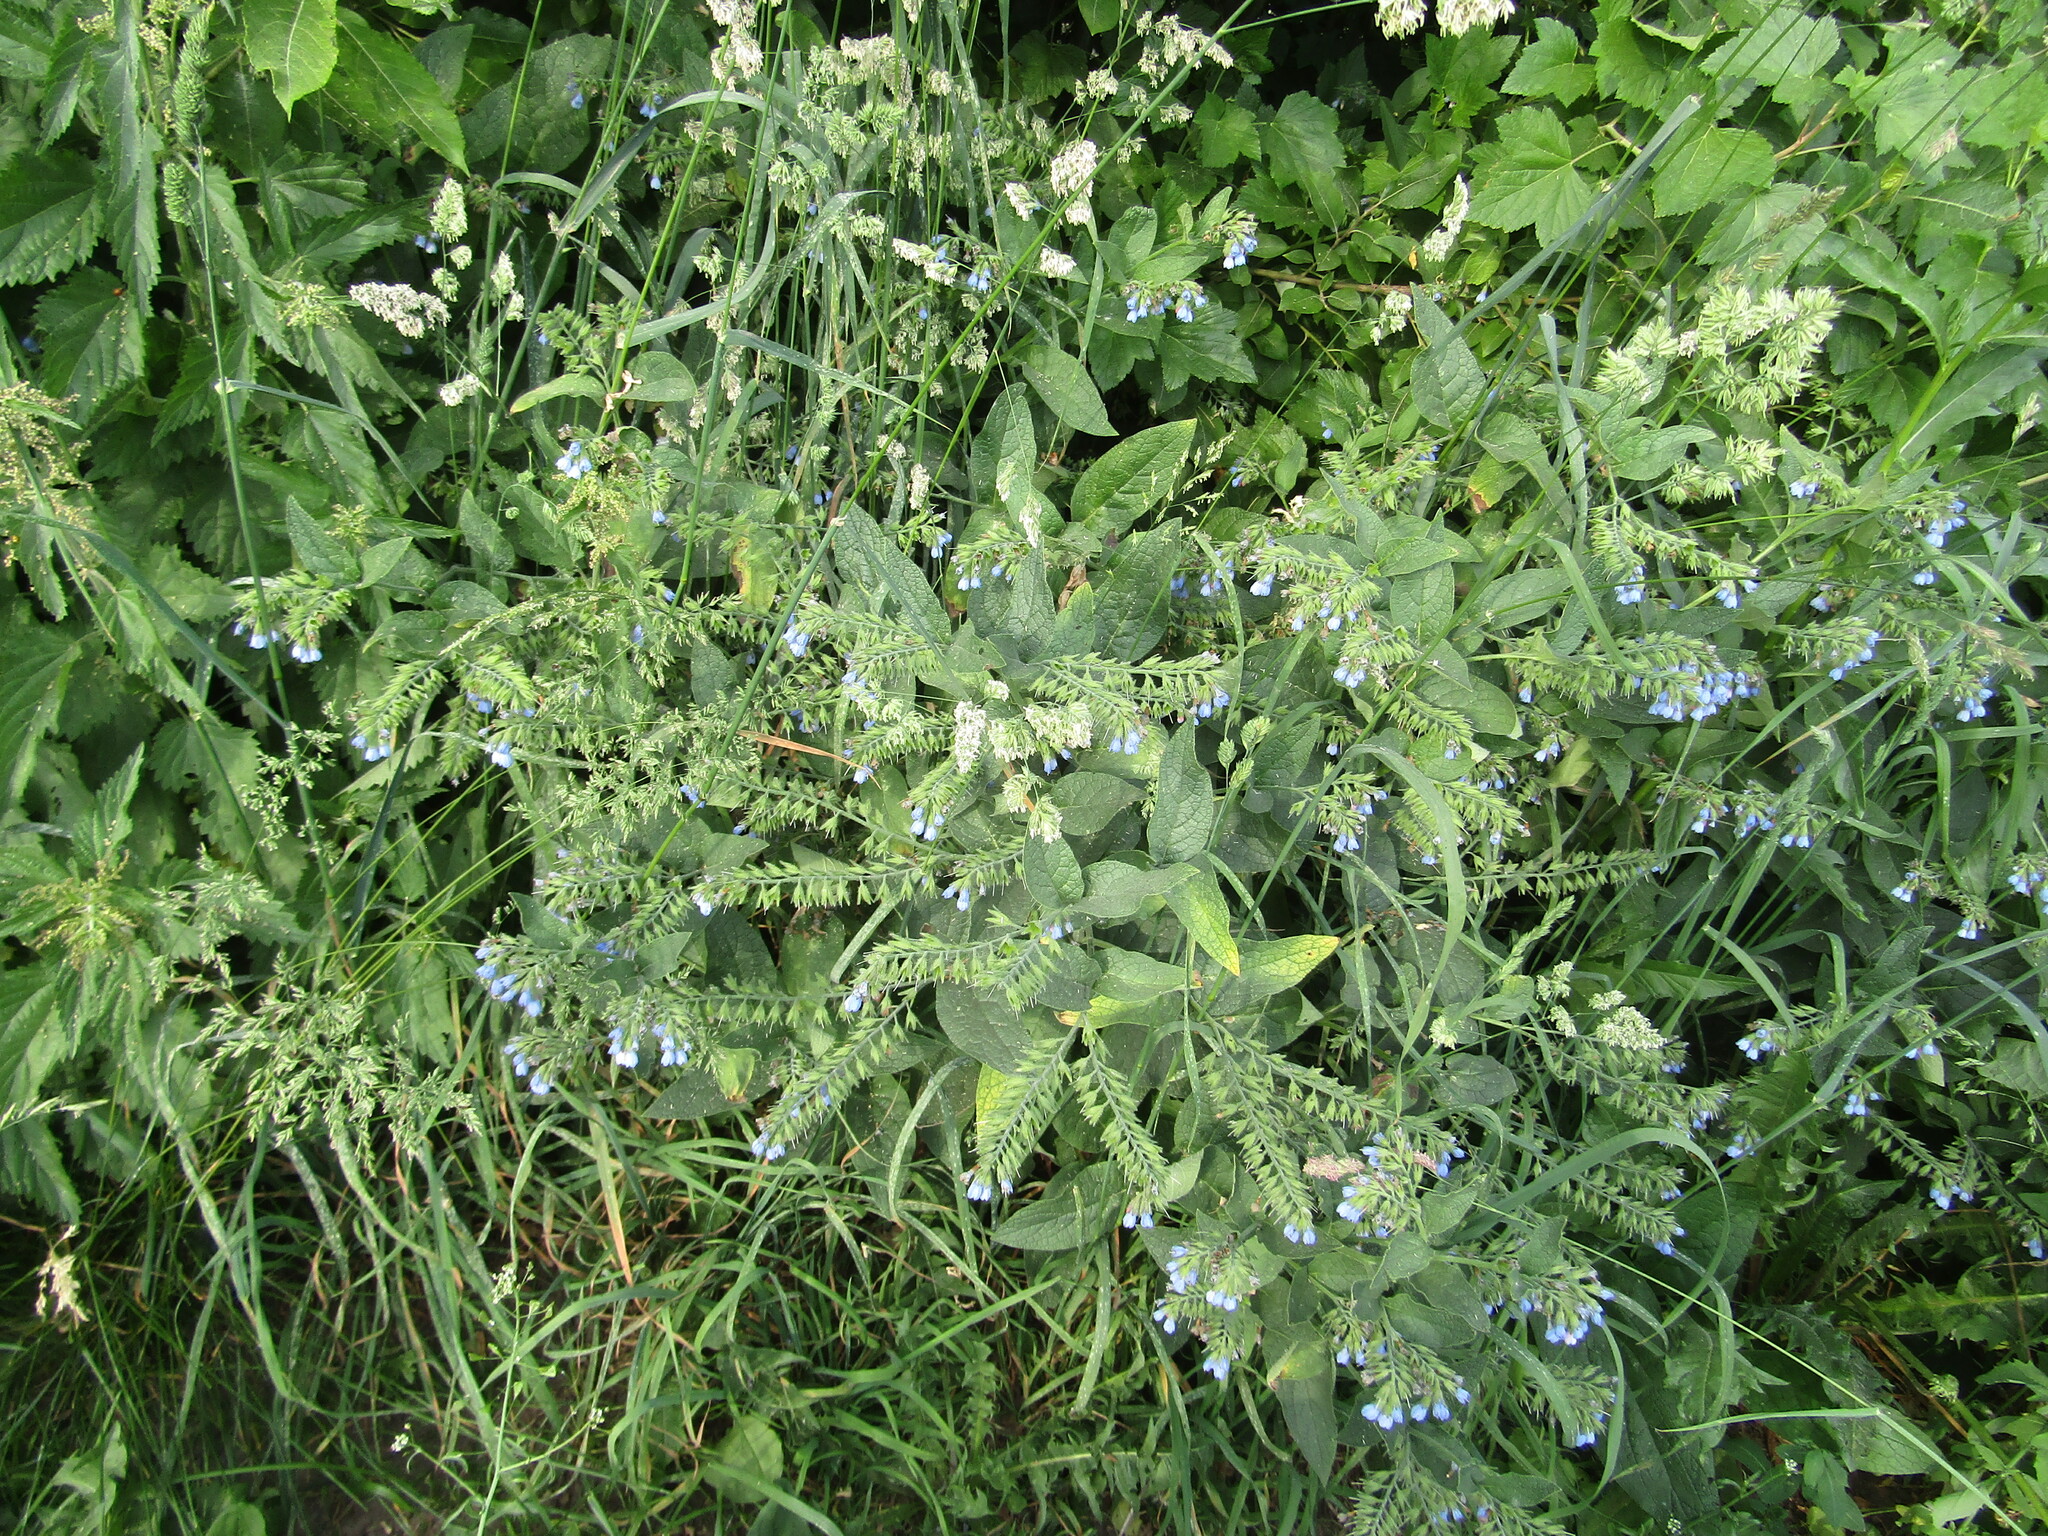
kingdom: Plantae
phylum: Tracheophyta
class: Magnoliopsida
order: Boraginales
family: Boraginaceae
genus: Symphytum
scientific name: Symphytum caucasicum
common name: Caucasian comfrey
